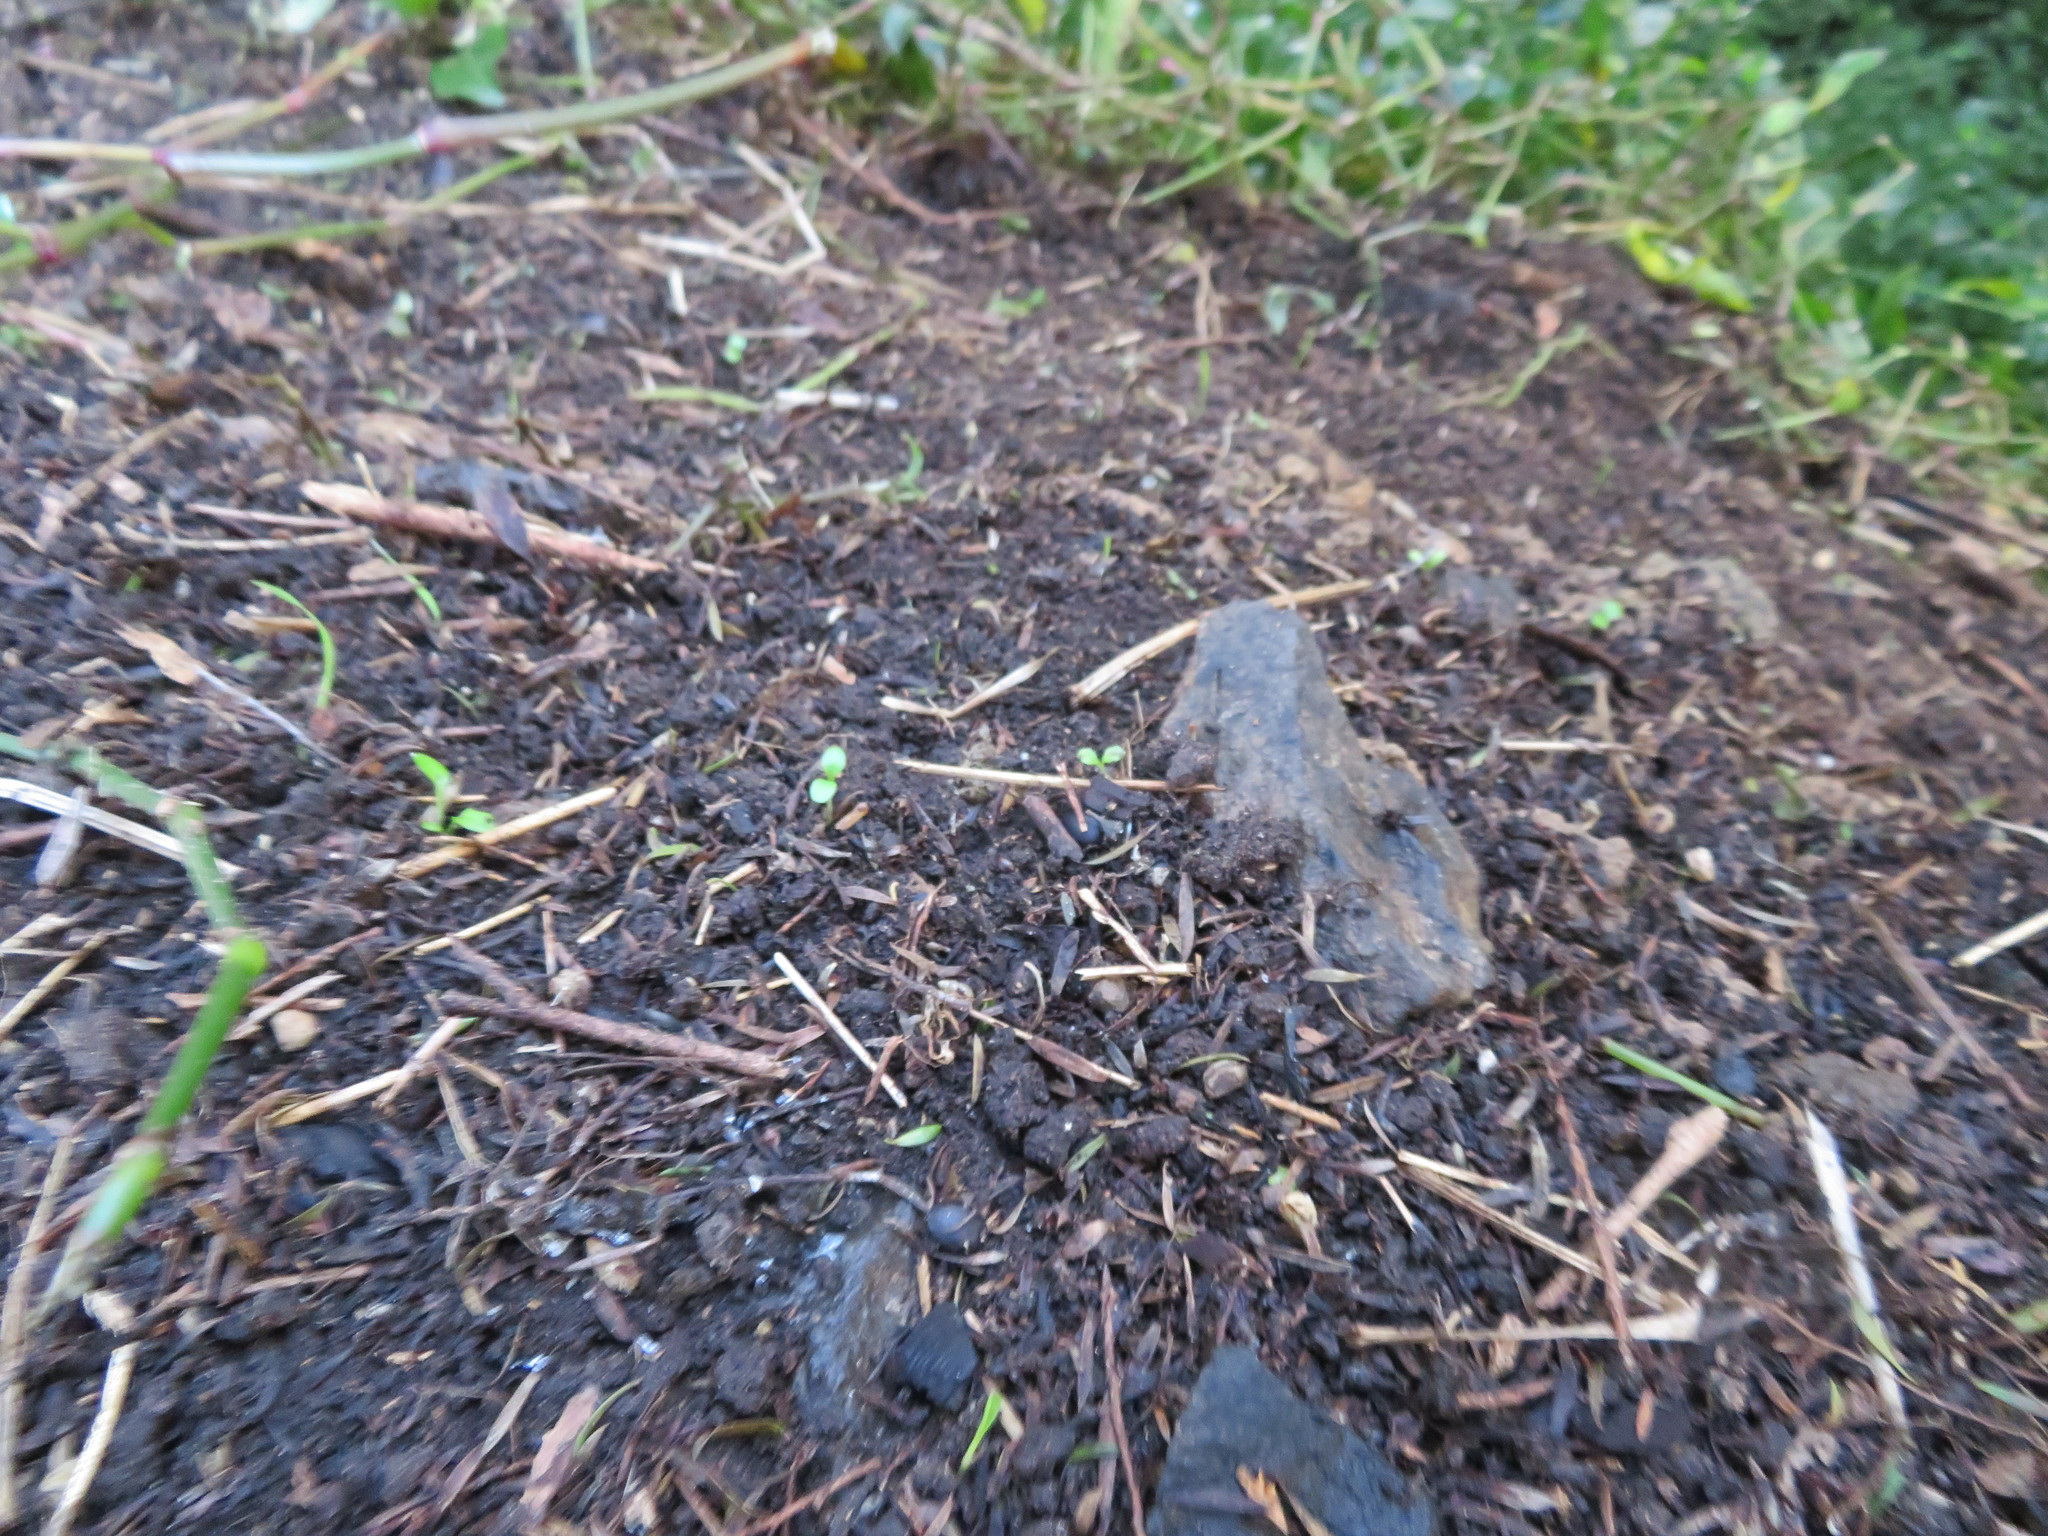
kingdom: Plantae
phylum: Tracheophyta
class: Liliopsida
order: Commelinales
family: Commelinaceae
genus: Tradescantia
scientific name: Tradescantia fluminensis
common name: Wandering-jew
